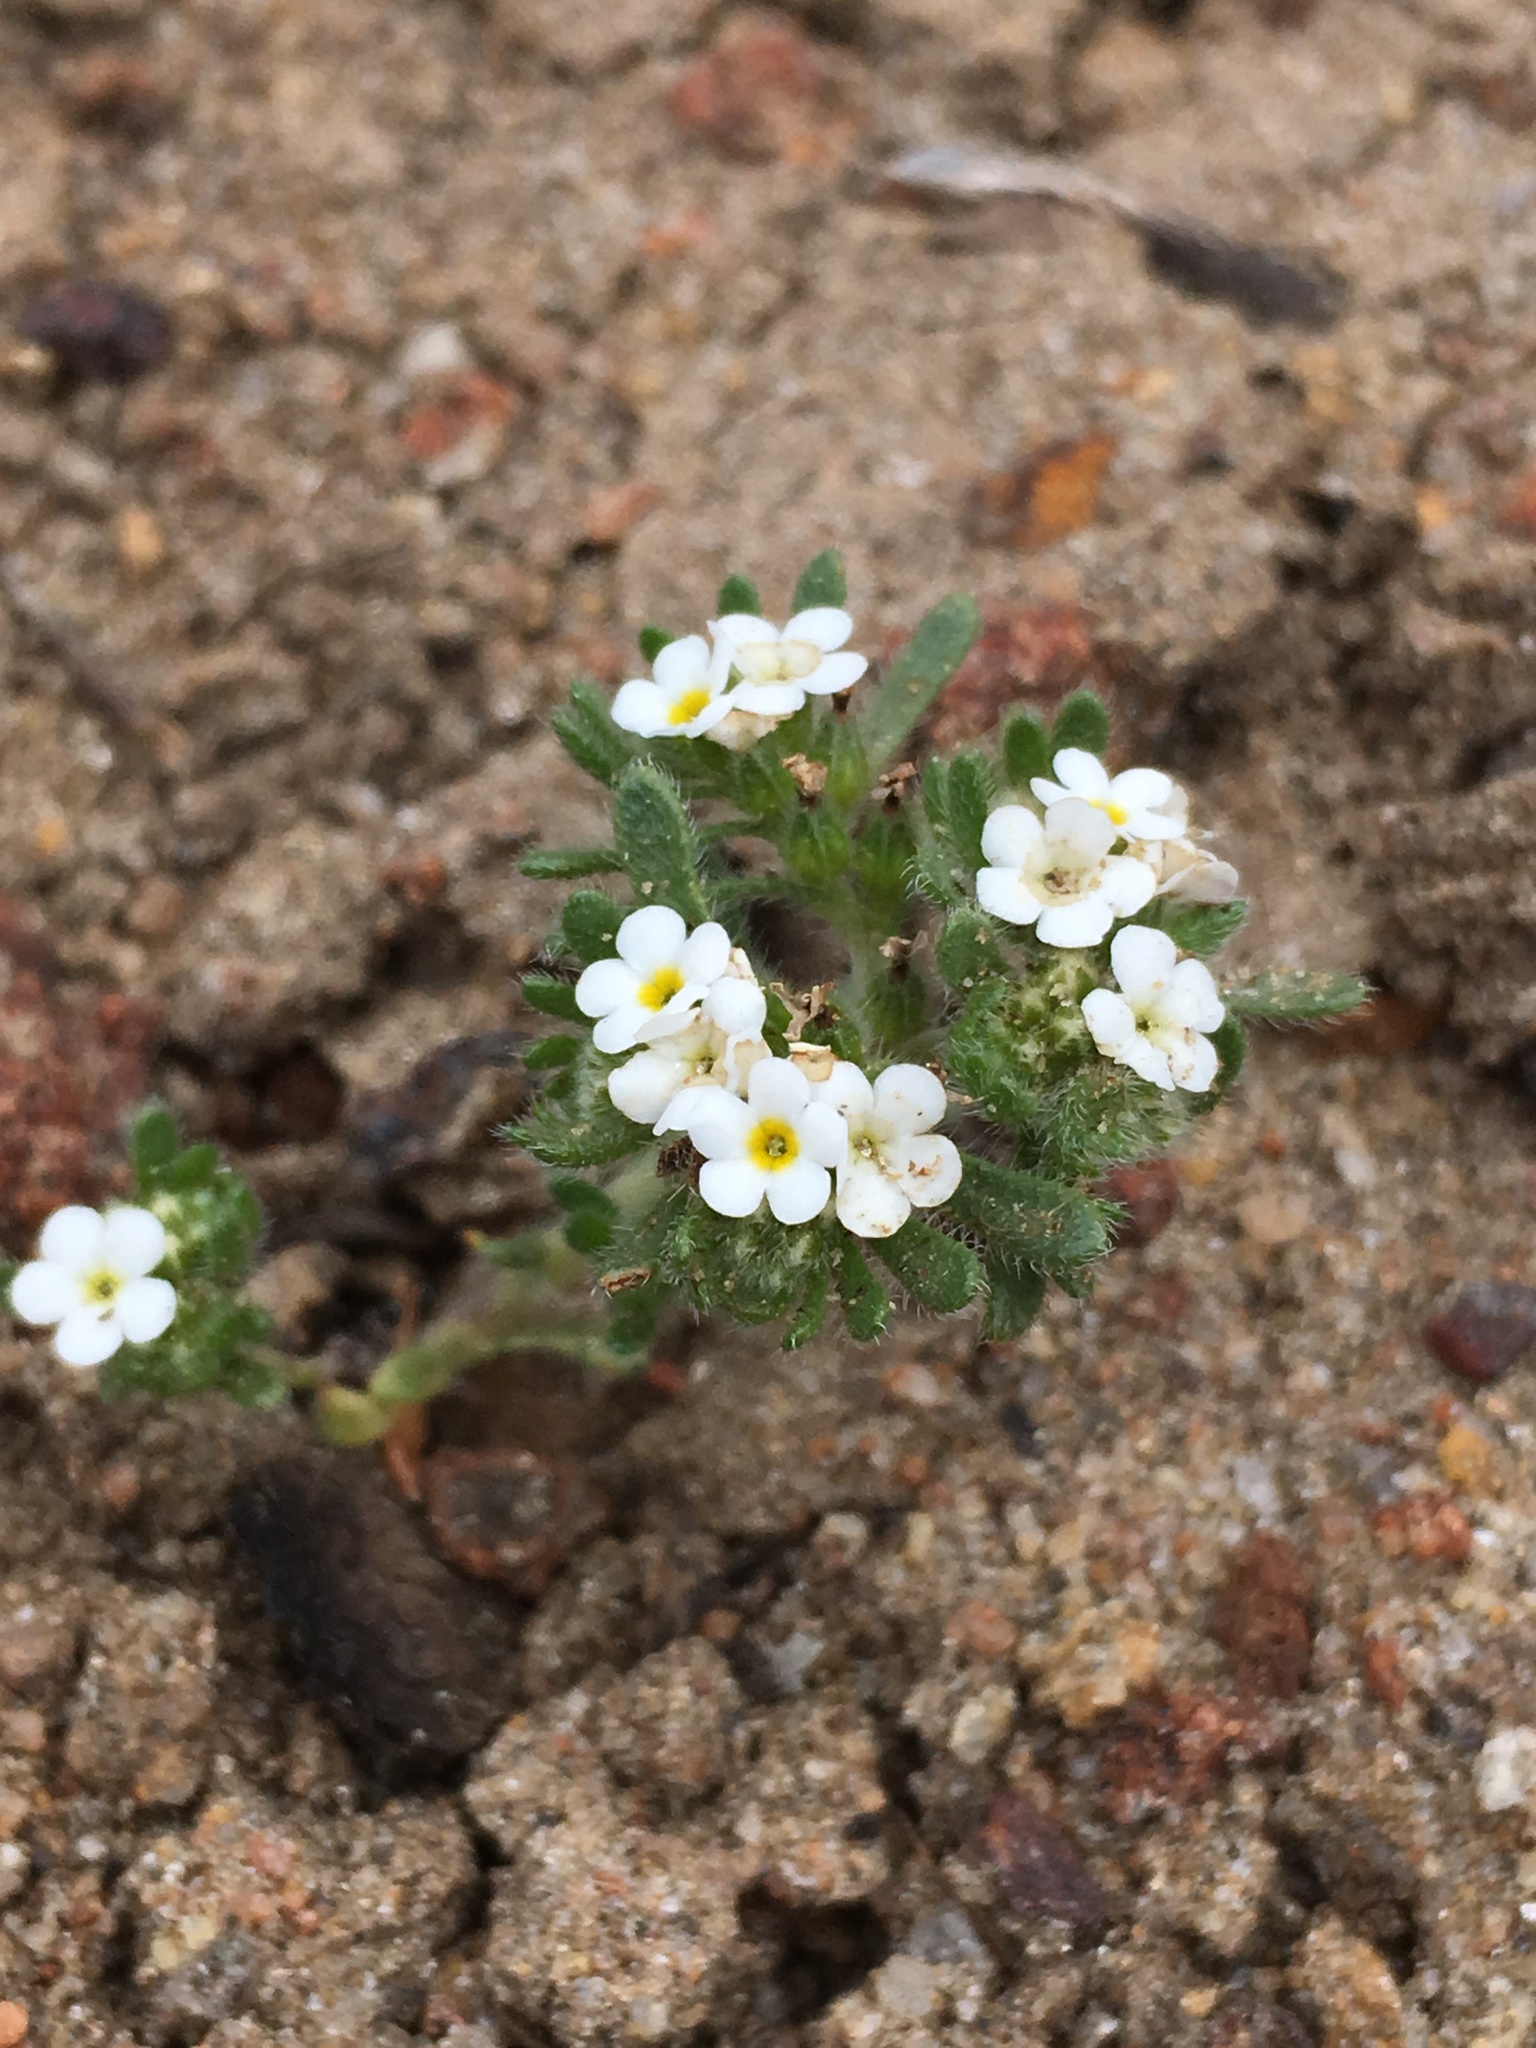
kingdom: Plantae
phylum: Tracheophyta
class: Magnoliopsida
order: Boraginales
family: Boraginaceae
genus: Eremocarya
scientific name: Eremocarya lepida
